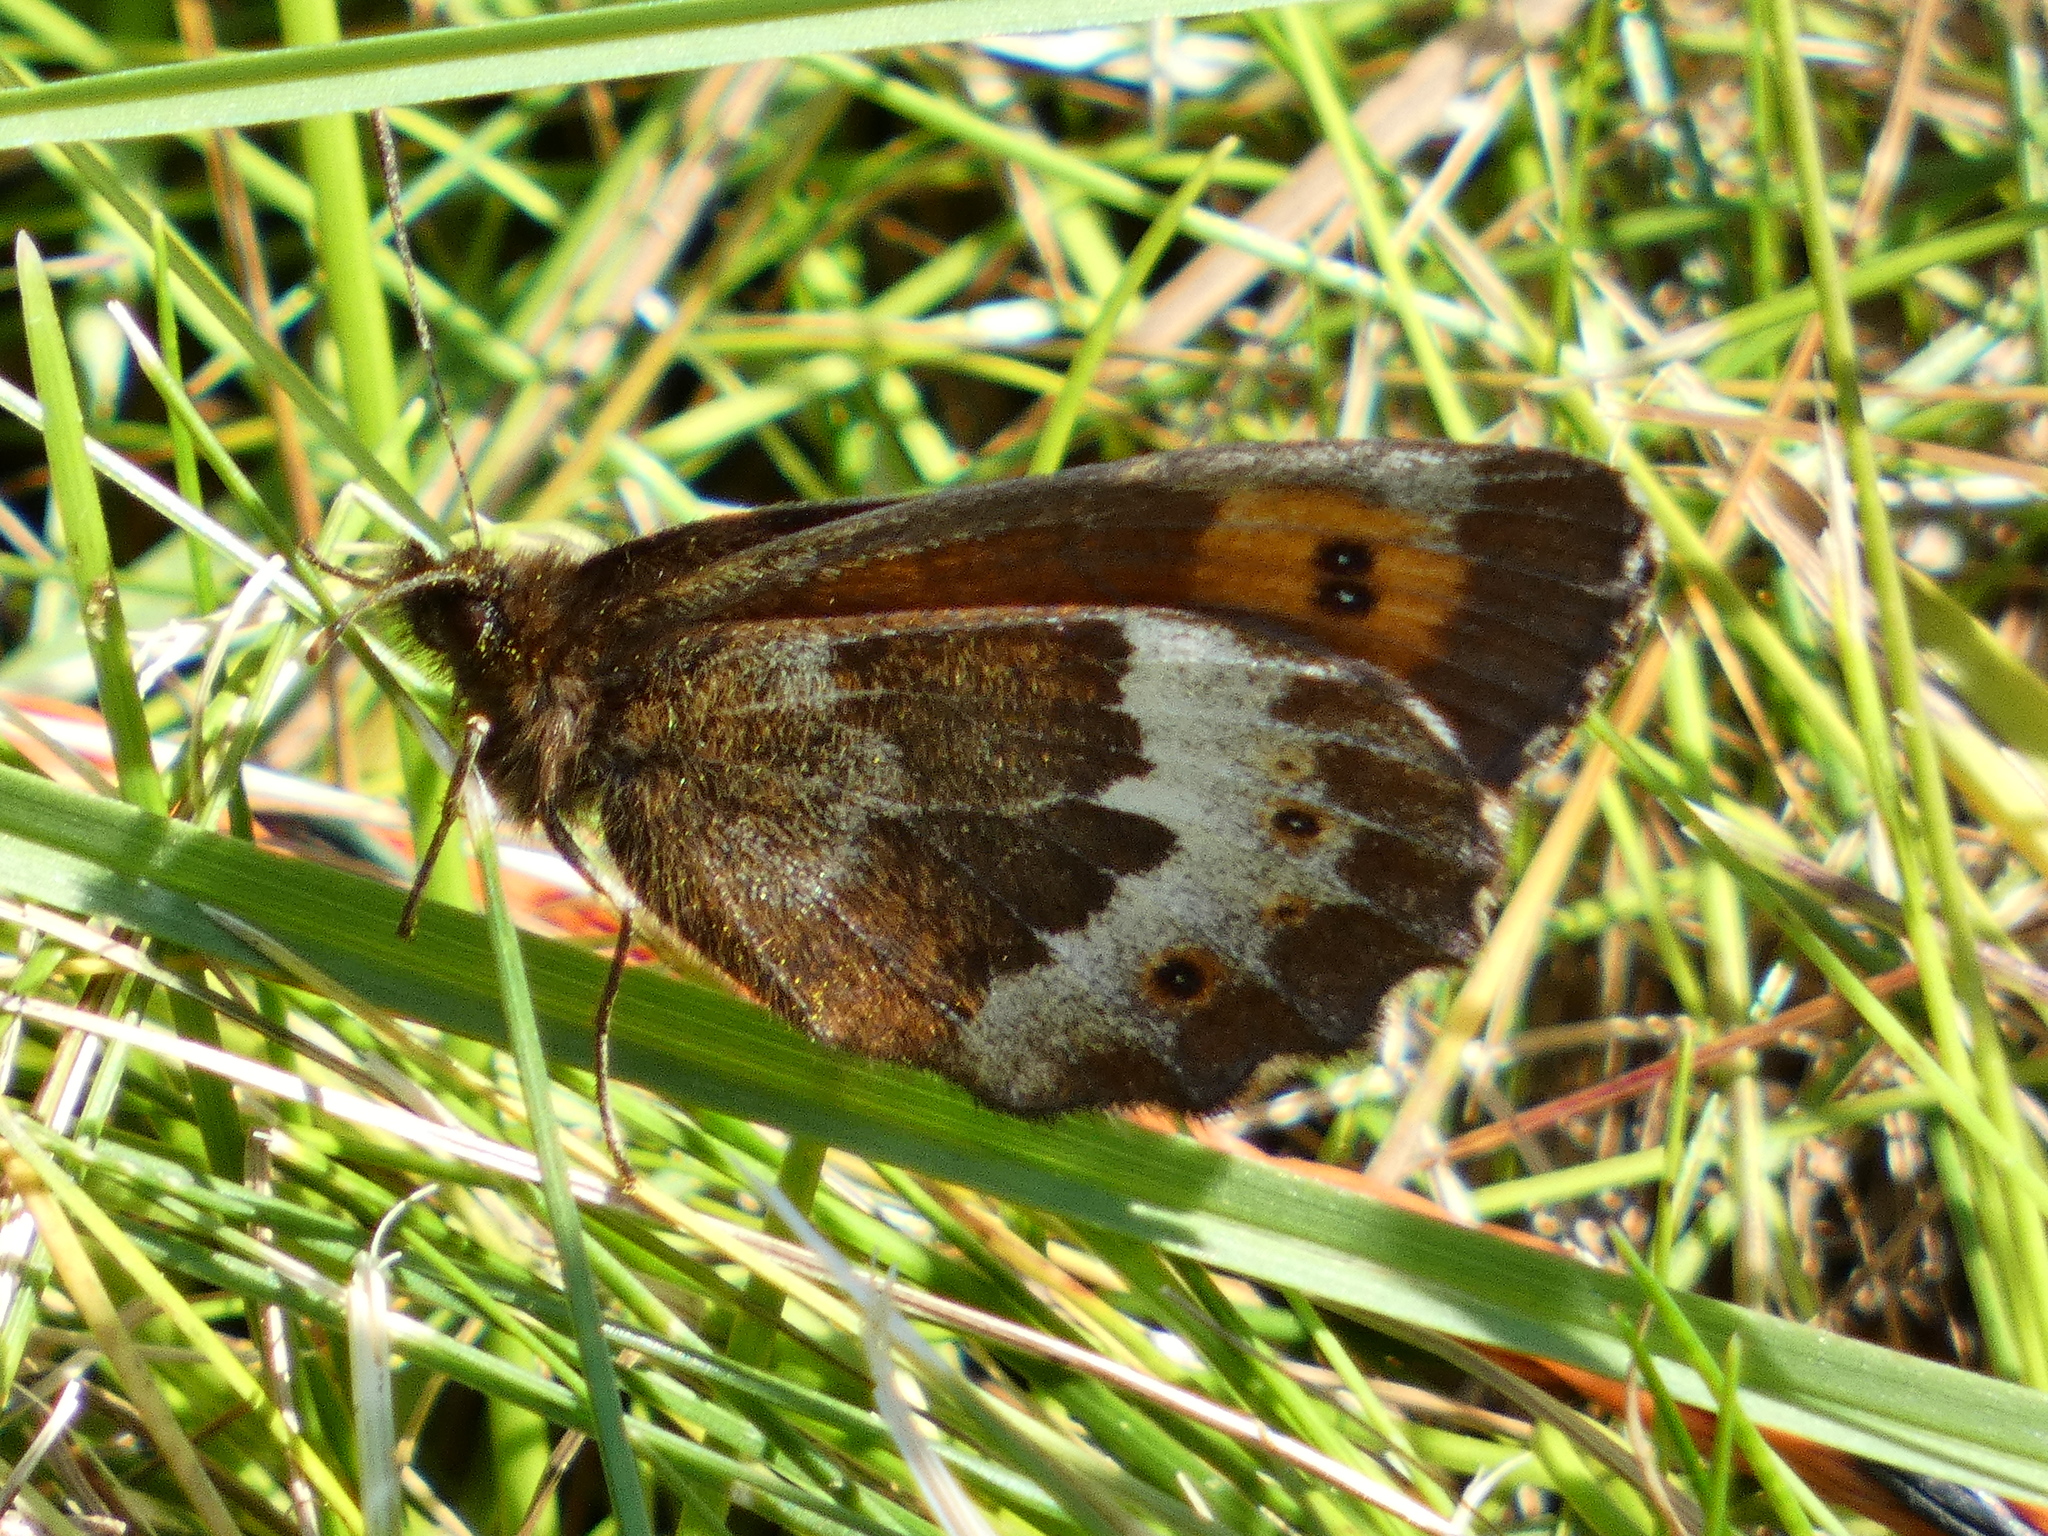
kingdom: Animalia
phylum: Arthropoda
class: Insecta
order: Lepidoptera
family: Nymphalidae
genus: Erebia
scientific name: Erebia euryale
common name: Large ringlet
